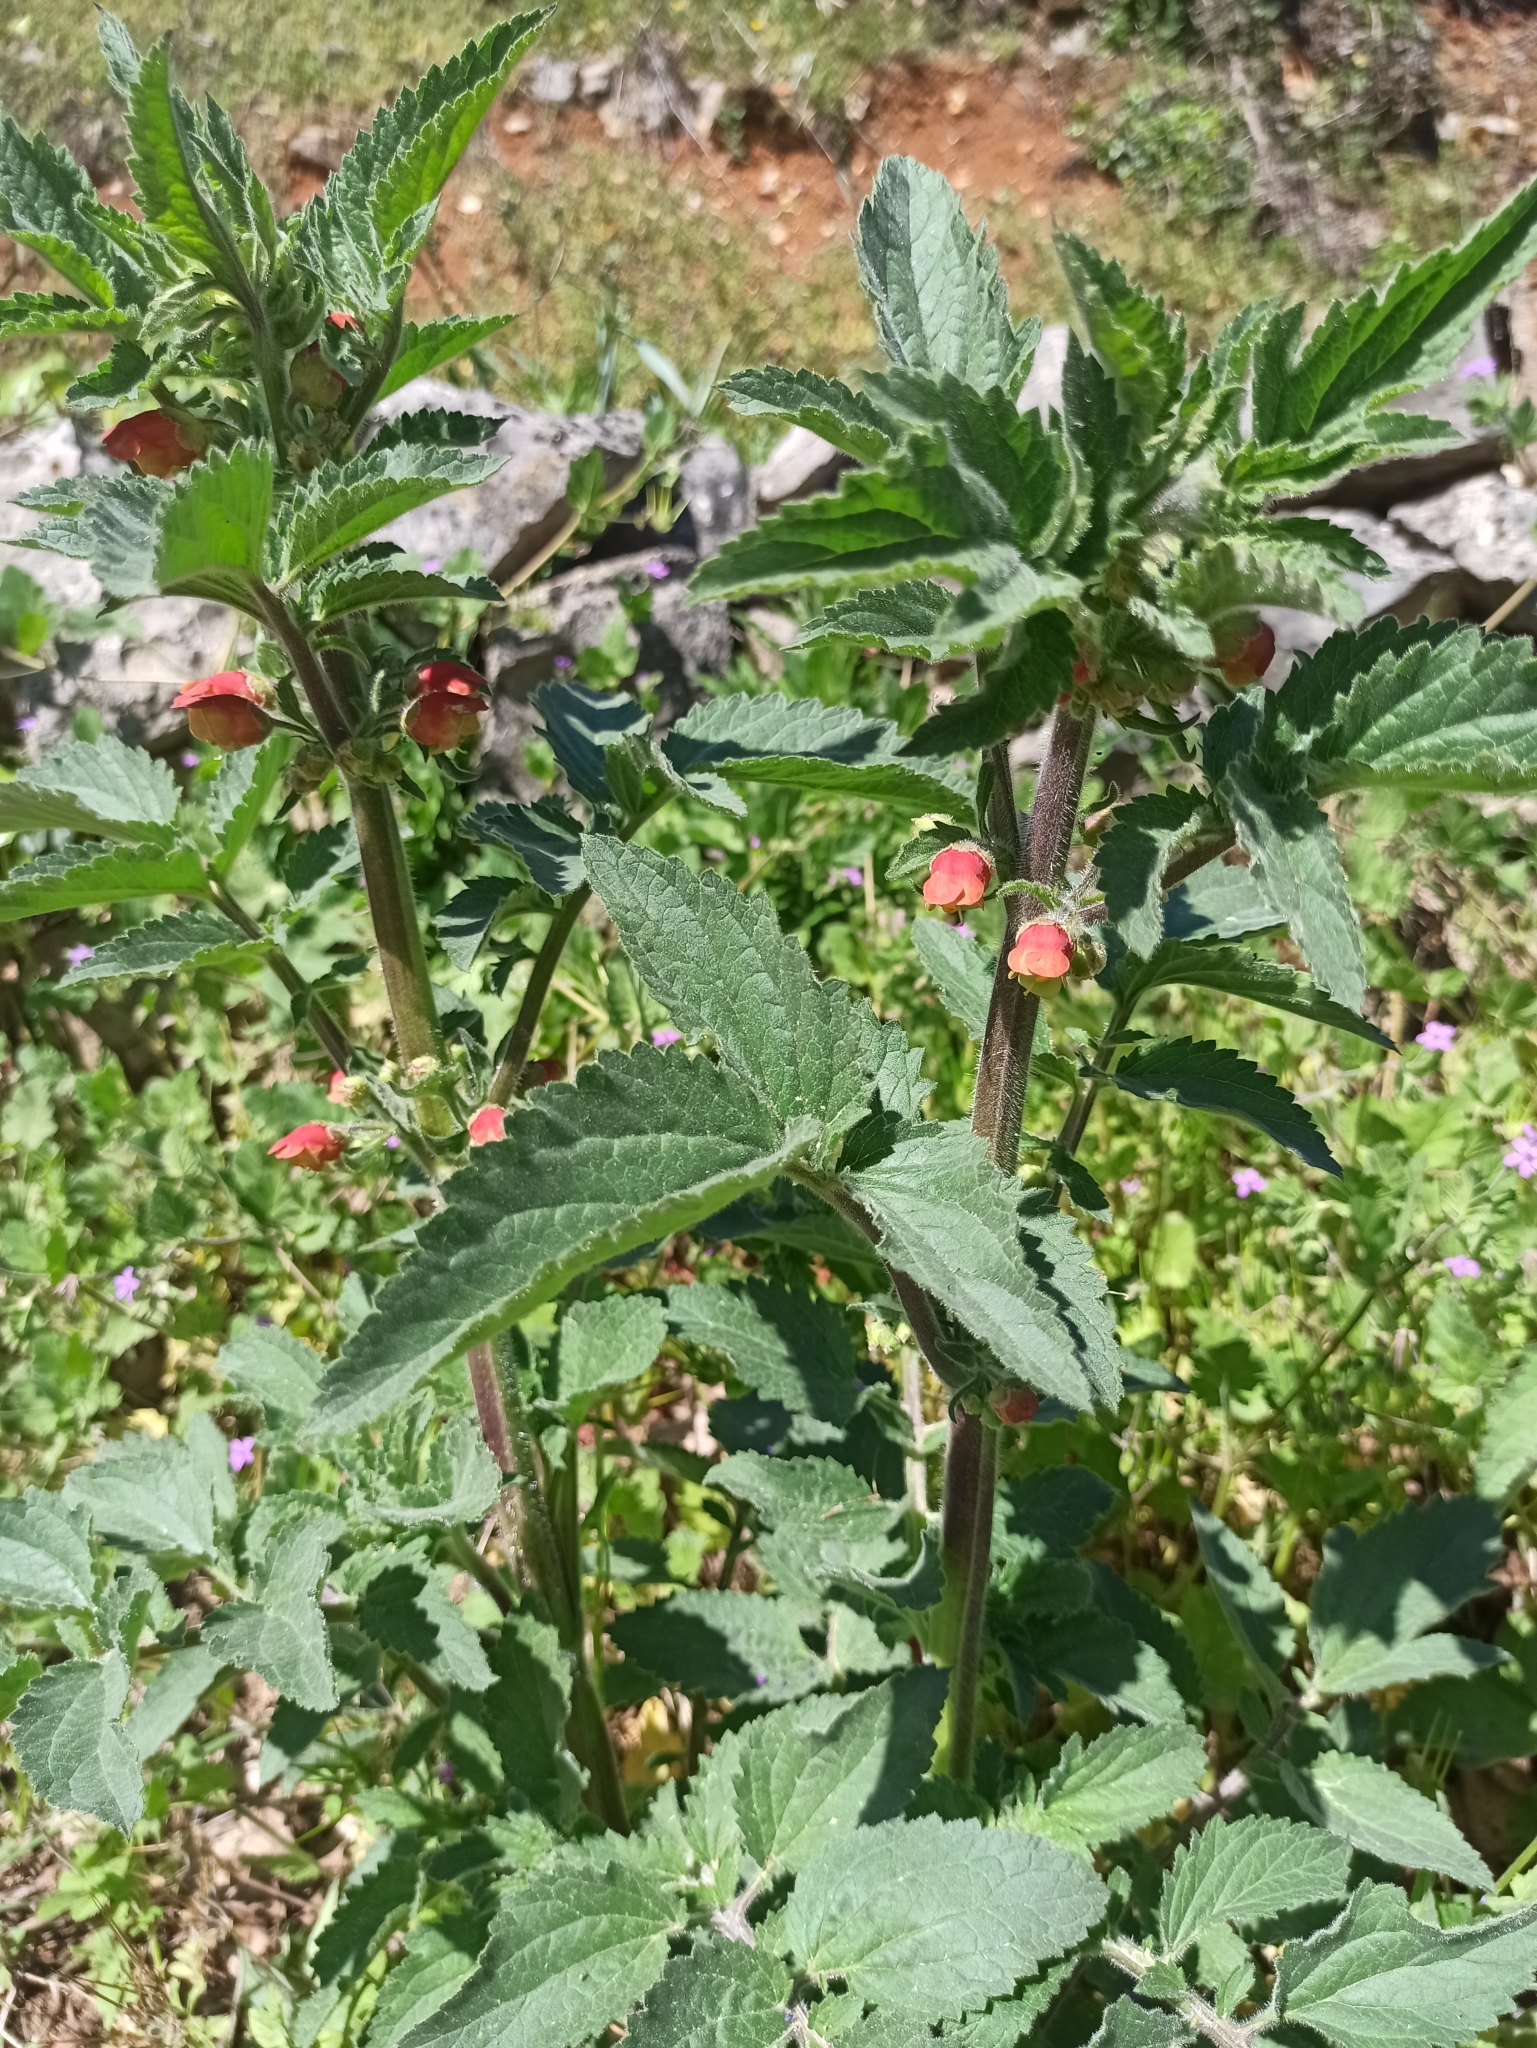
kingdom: Plantae
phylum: Tracheophyta
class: Magnoliopsida
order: Lamiales
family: Scrophulariaceae
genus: Scrophularia
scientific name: Scrophularia grandiflora
